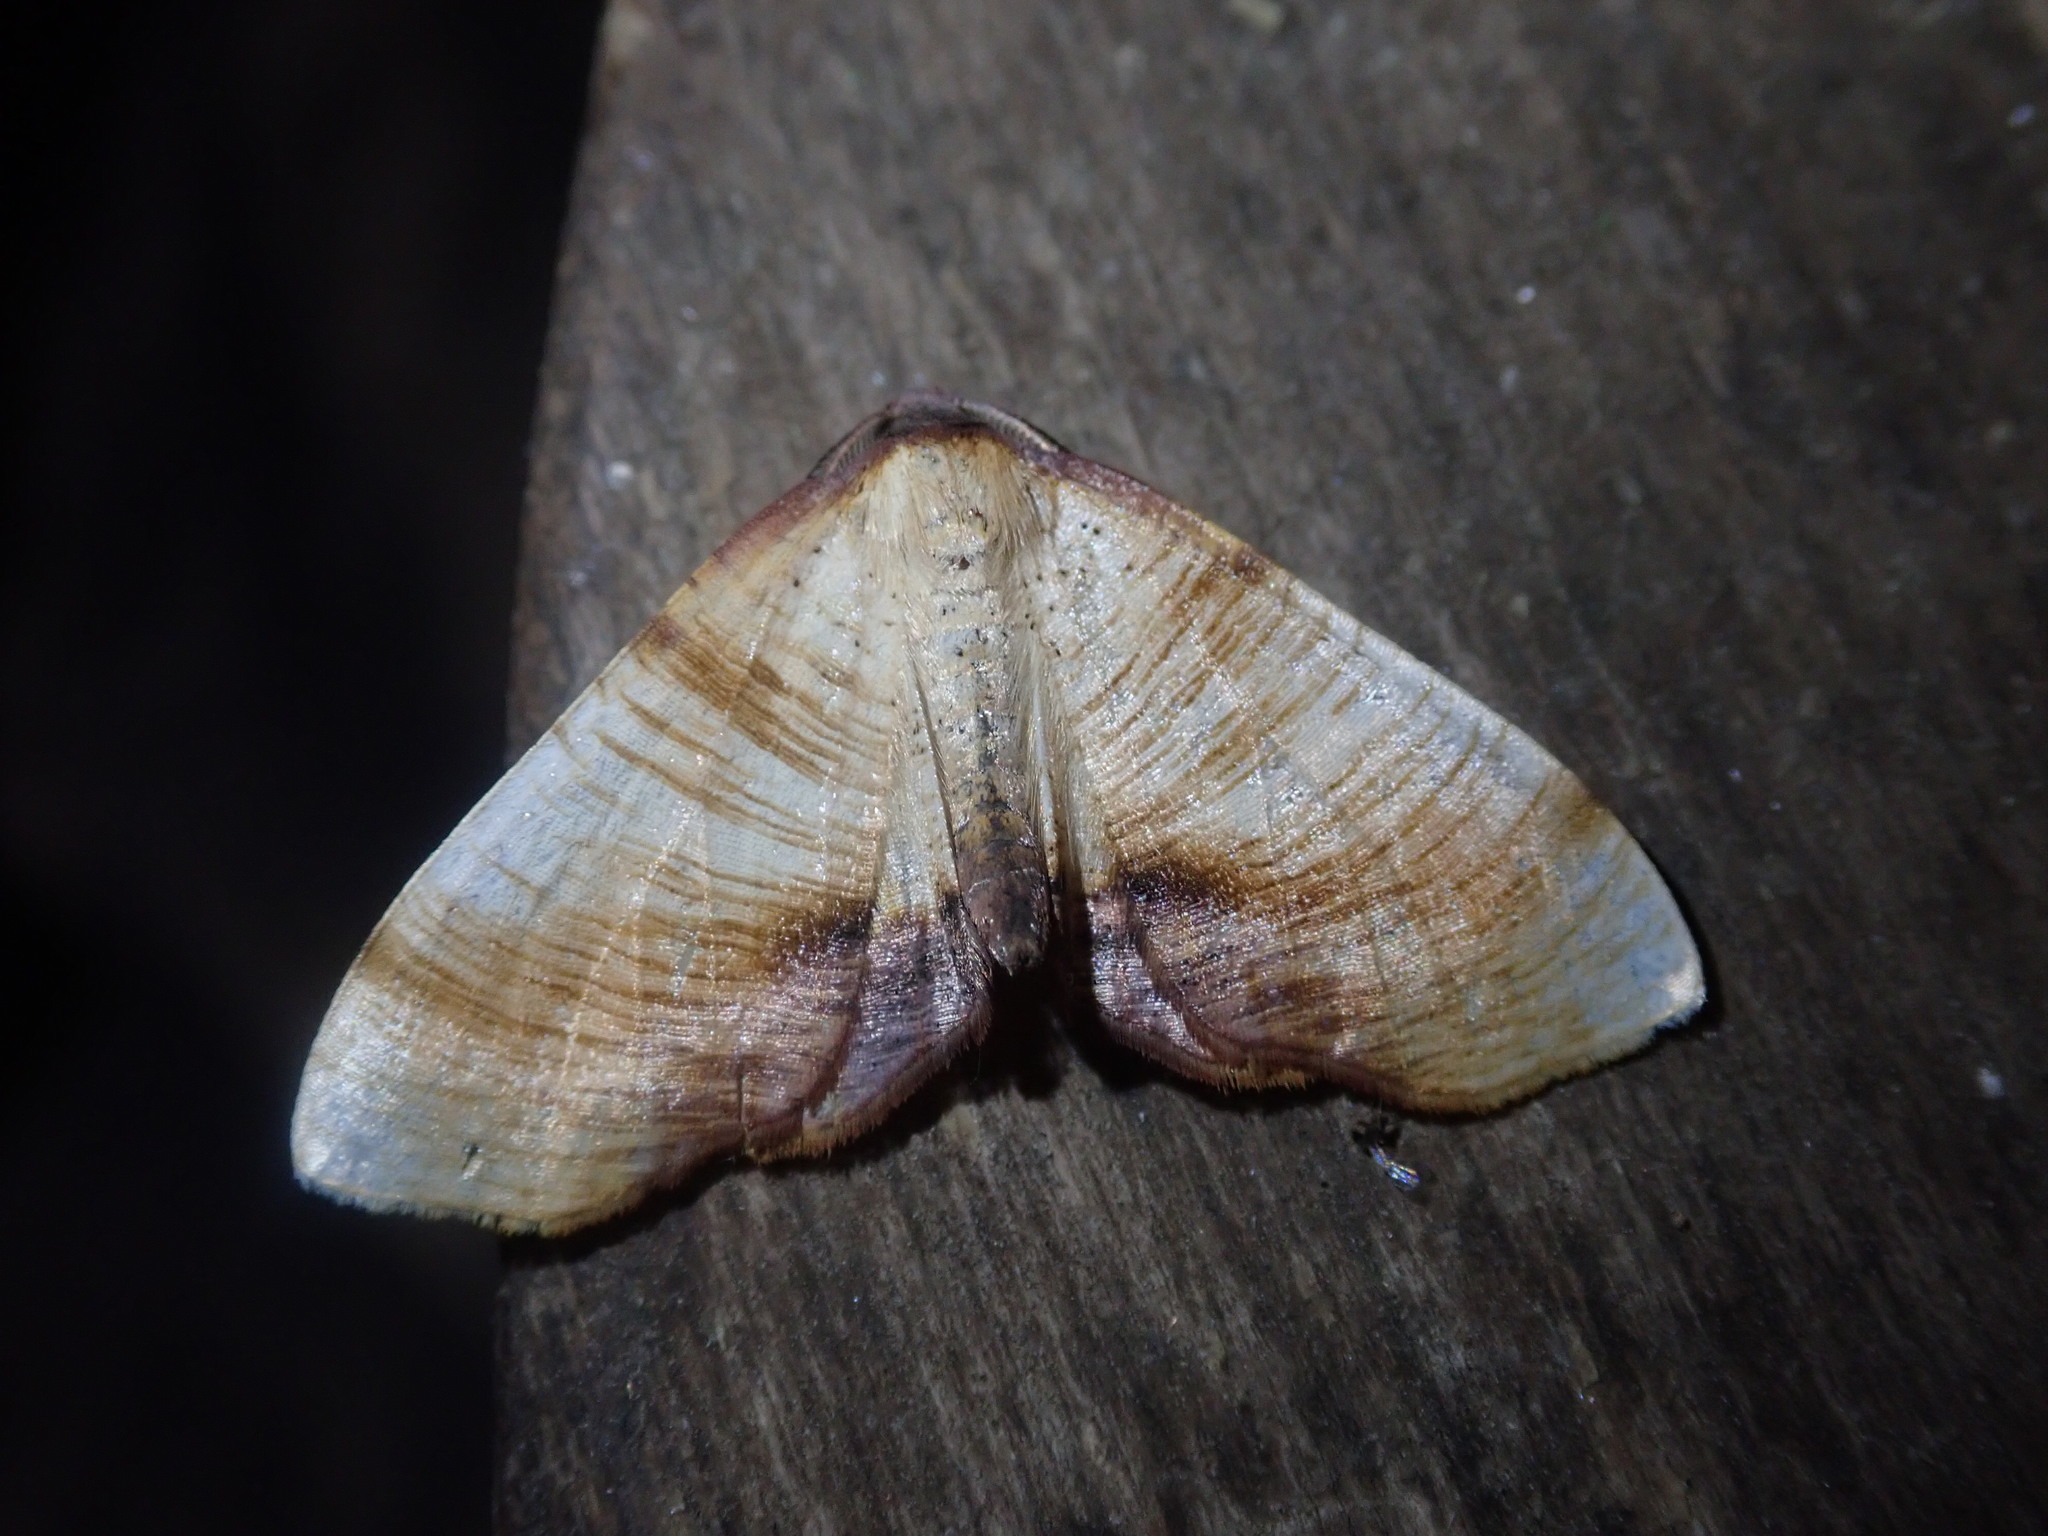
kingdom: Animalia
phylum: Arthropoda
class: Insecta
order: Lepidoptera
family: Geometridae
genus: Plagodis
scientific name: Plagodis dolabraria
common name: Scorched wing
